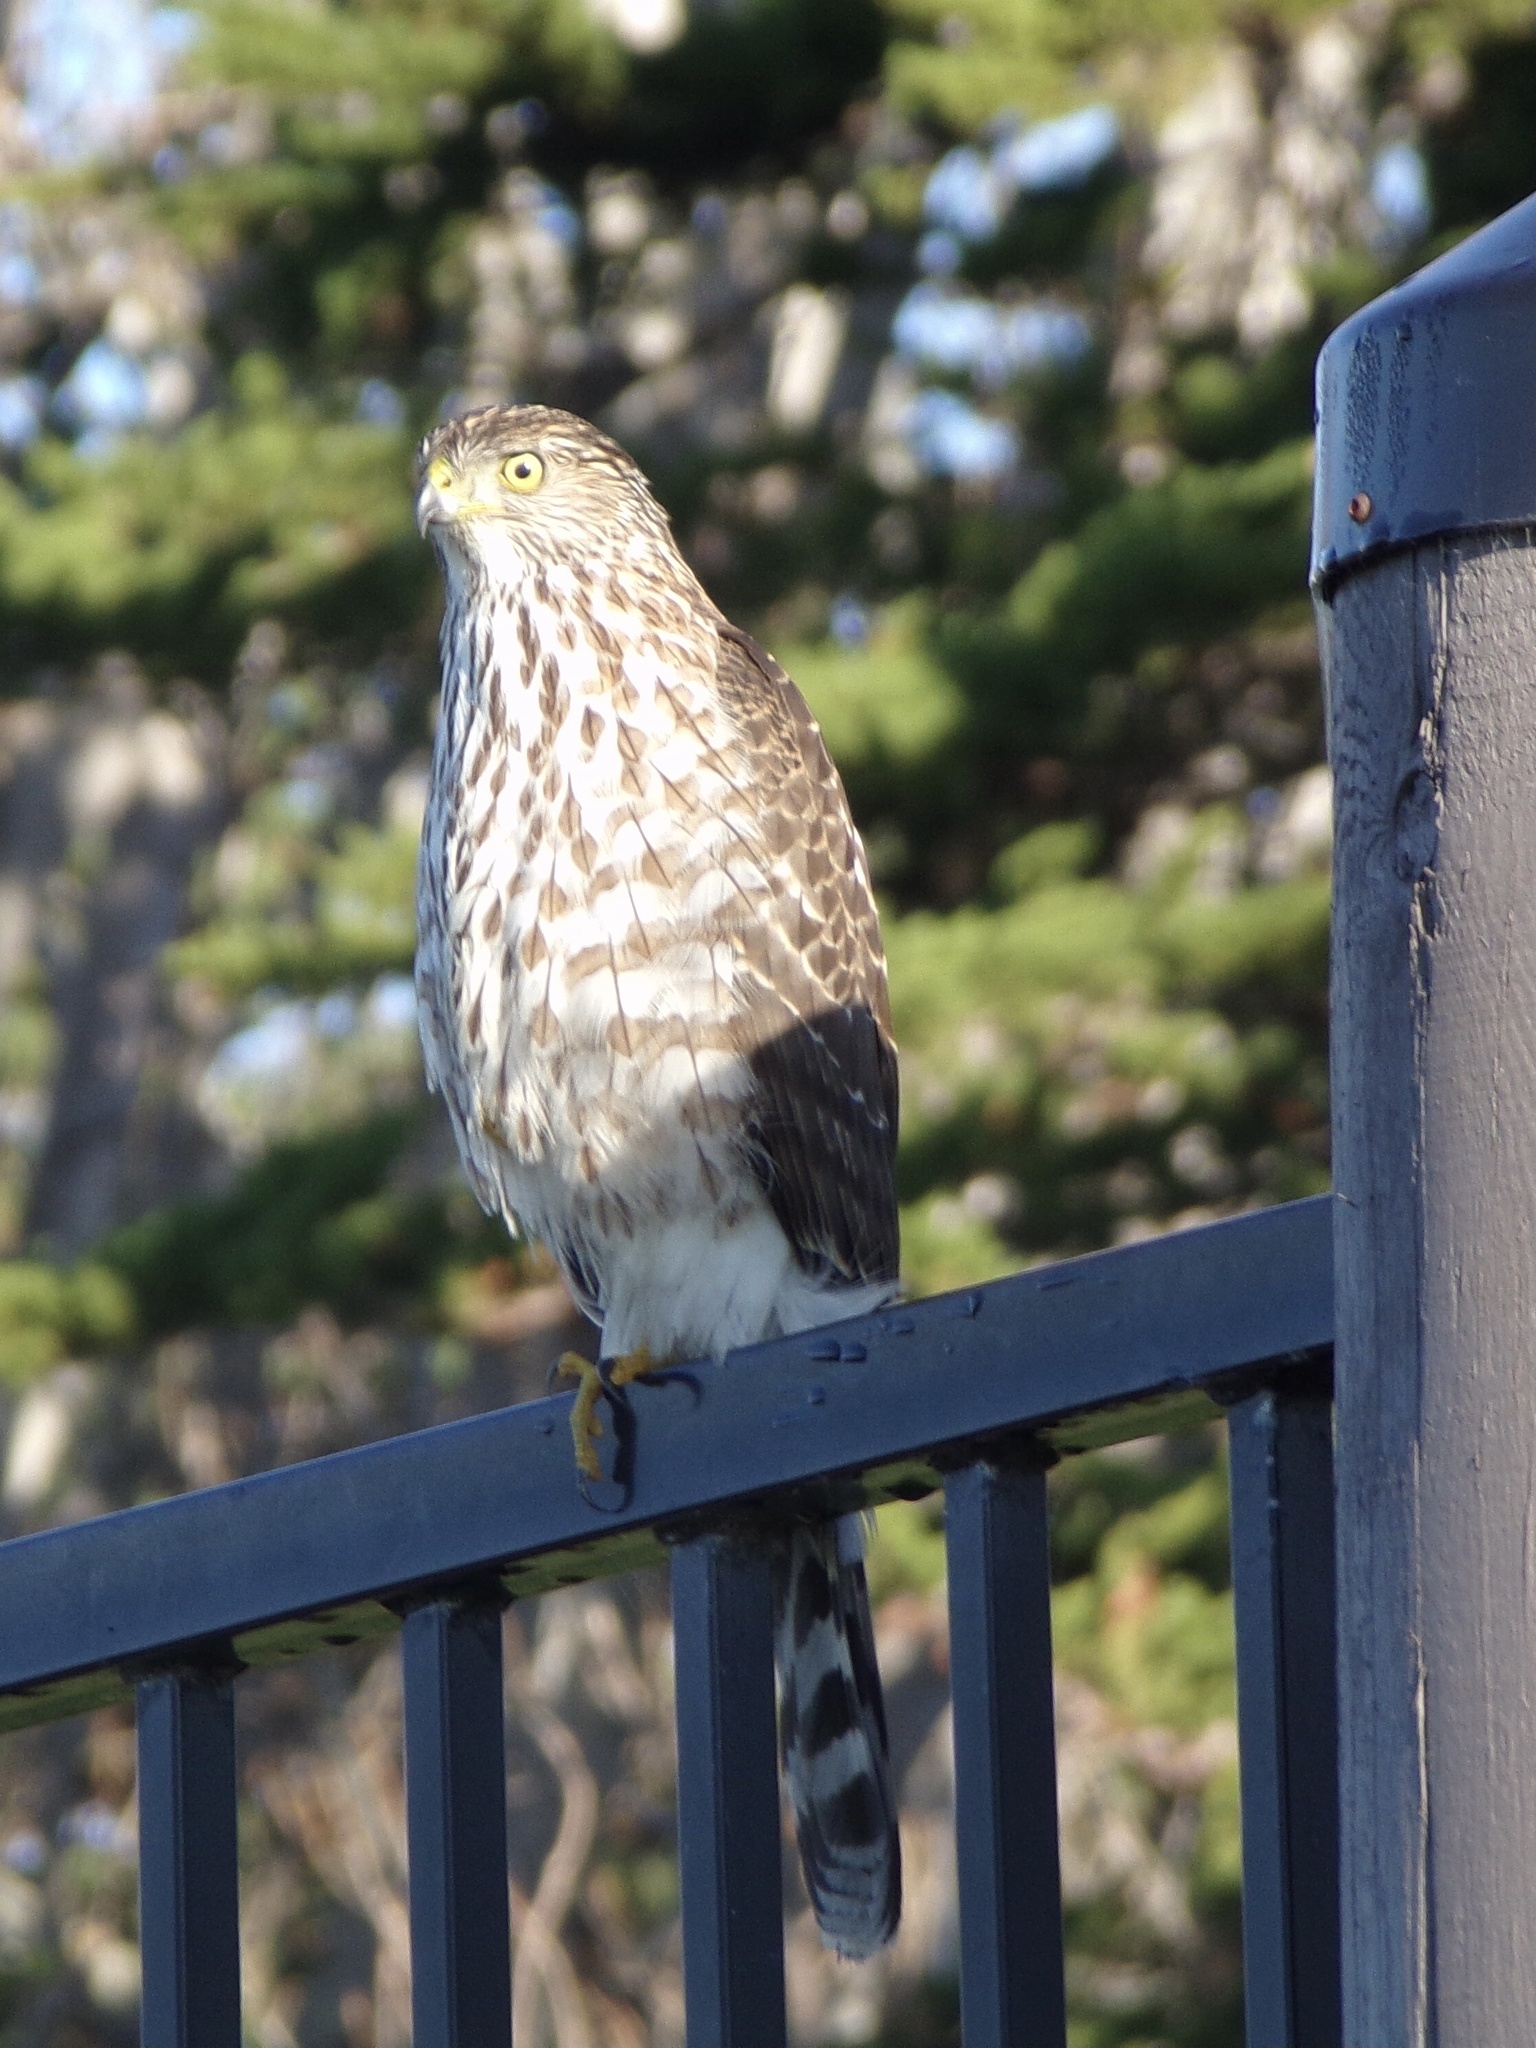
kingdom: Animalia
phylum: Chordata
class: Aves
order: Accipitriformes
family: Accipitridae
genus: Accipiter
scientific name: Accipiter cooperii
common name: Cooper's hawk
